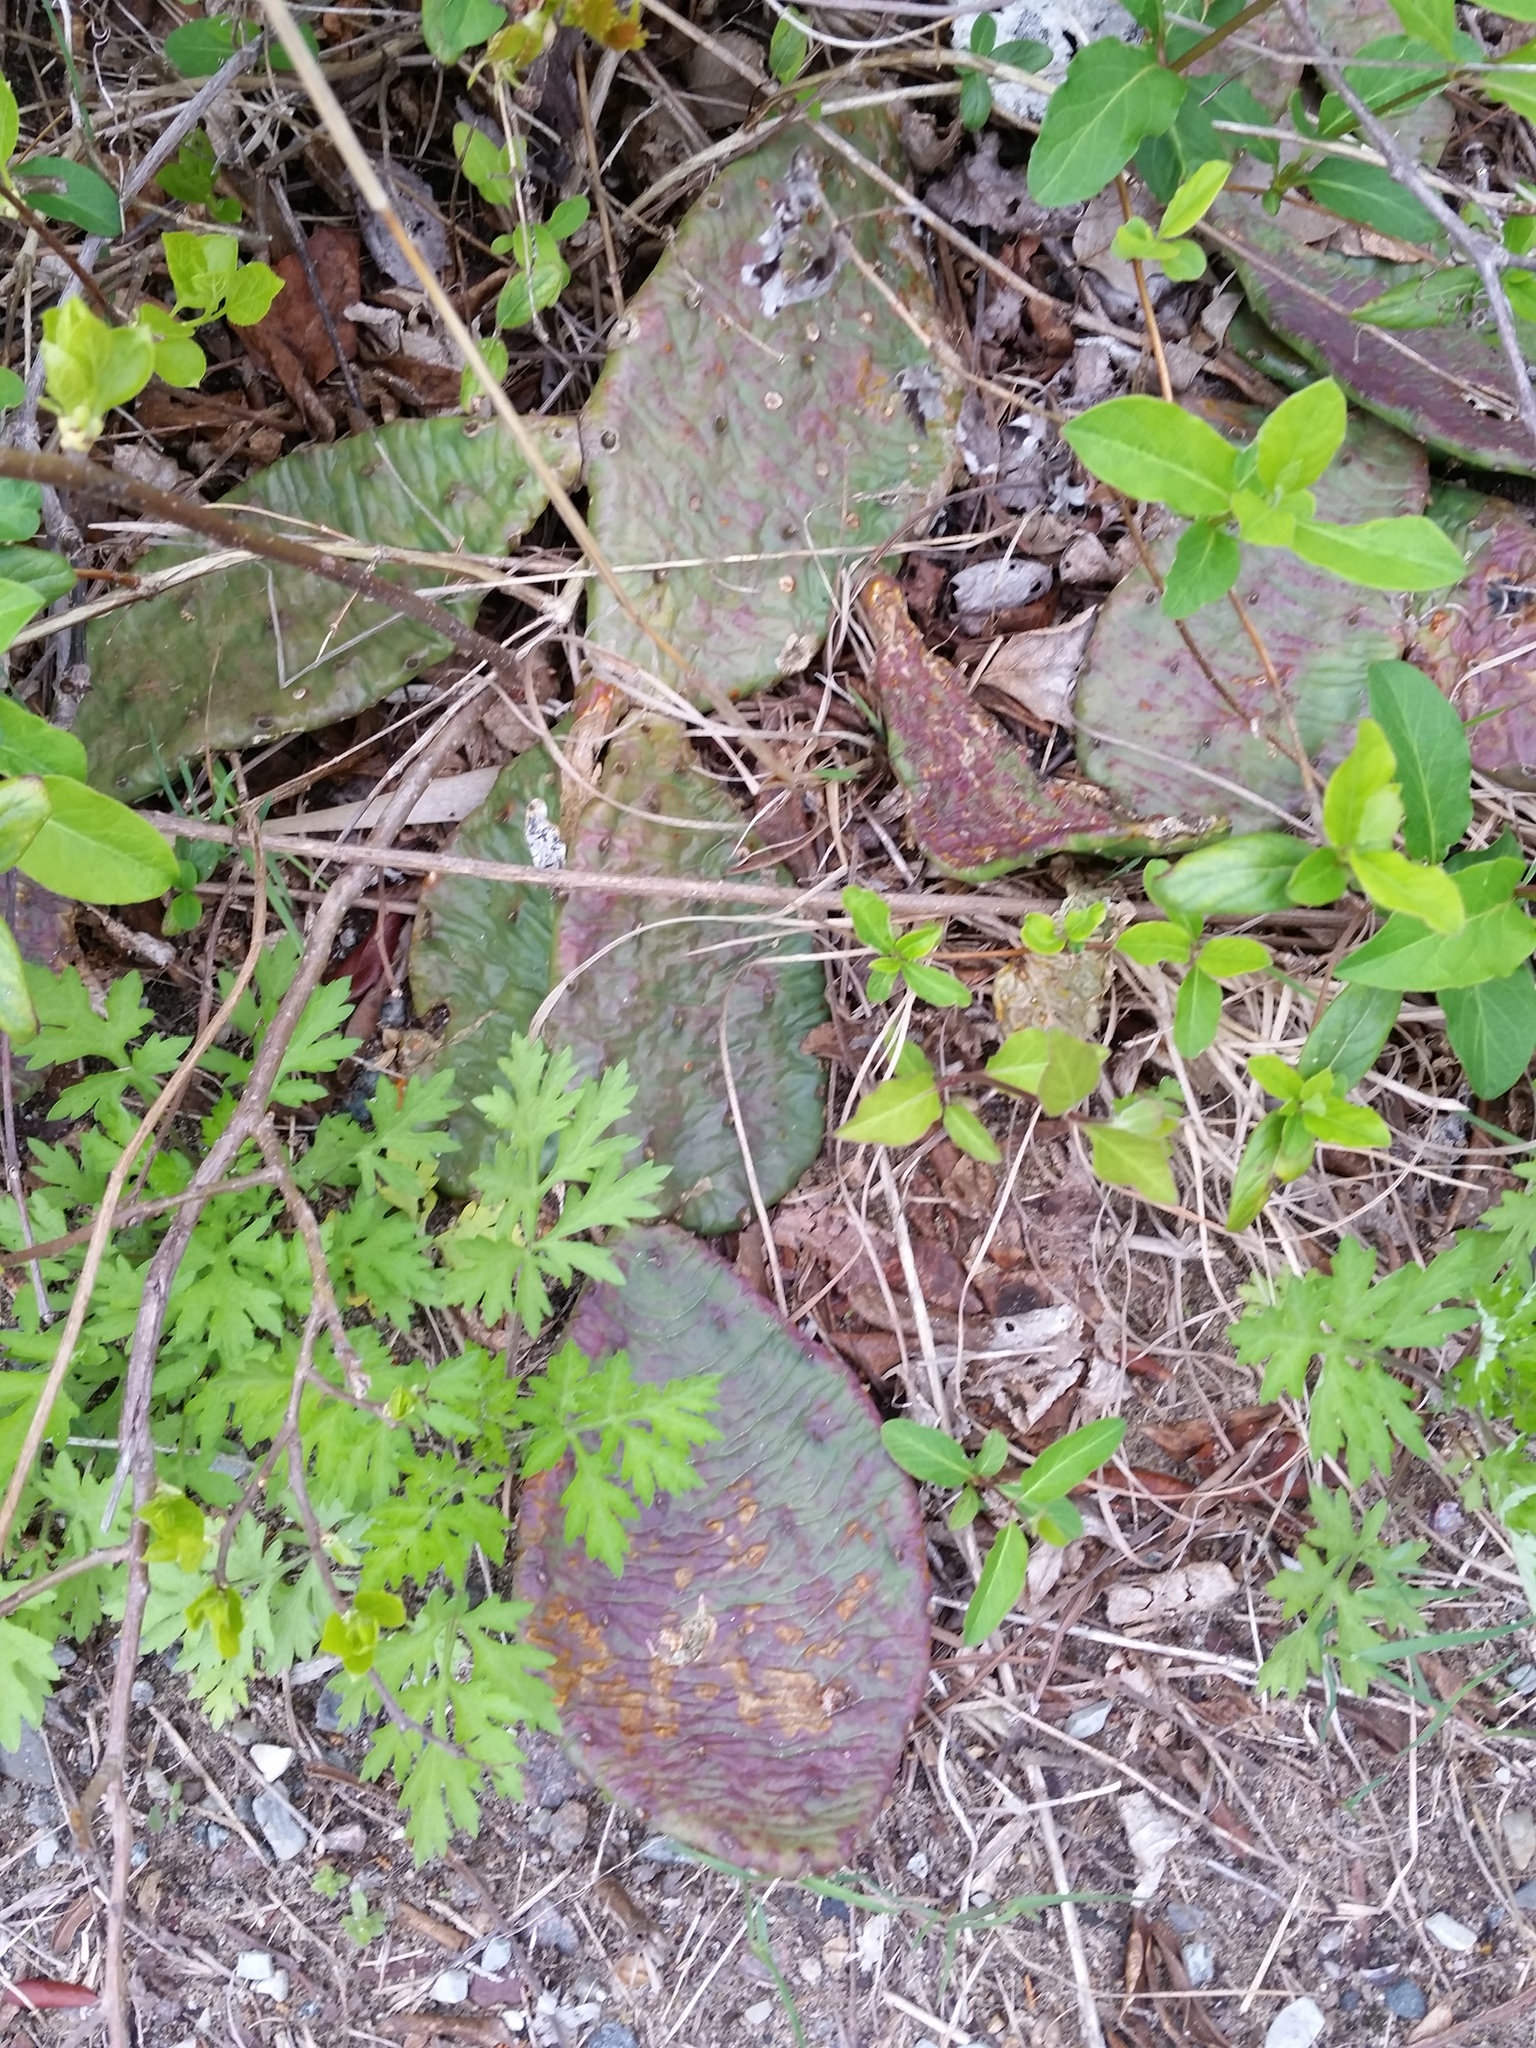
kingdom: Plantae
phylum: Tracheophyta
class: Magnoliopsida
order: Caryophyllales
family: Cactaceae
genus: Opuntia
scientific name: Opuntia humifusa
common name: Eastern prickly-pear
